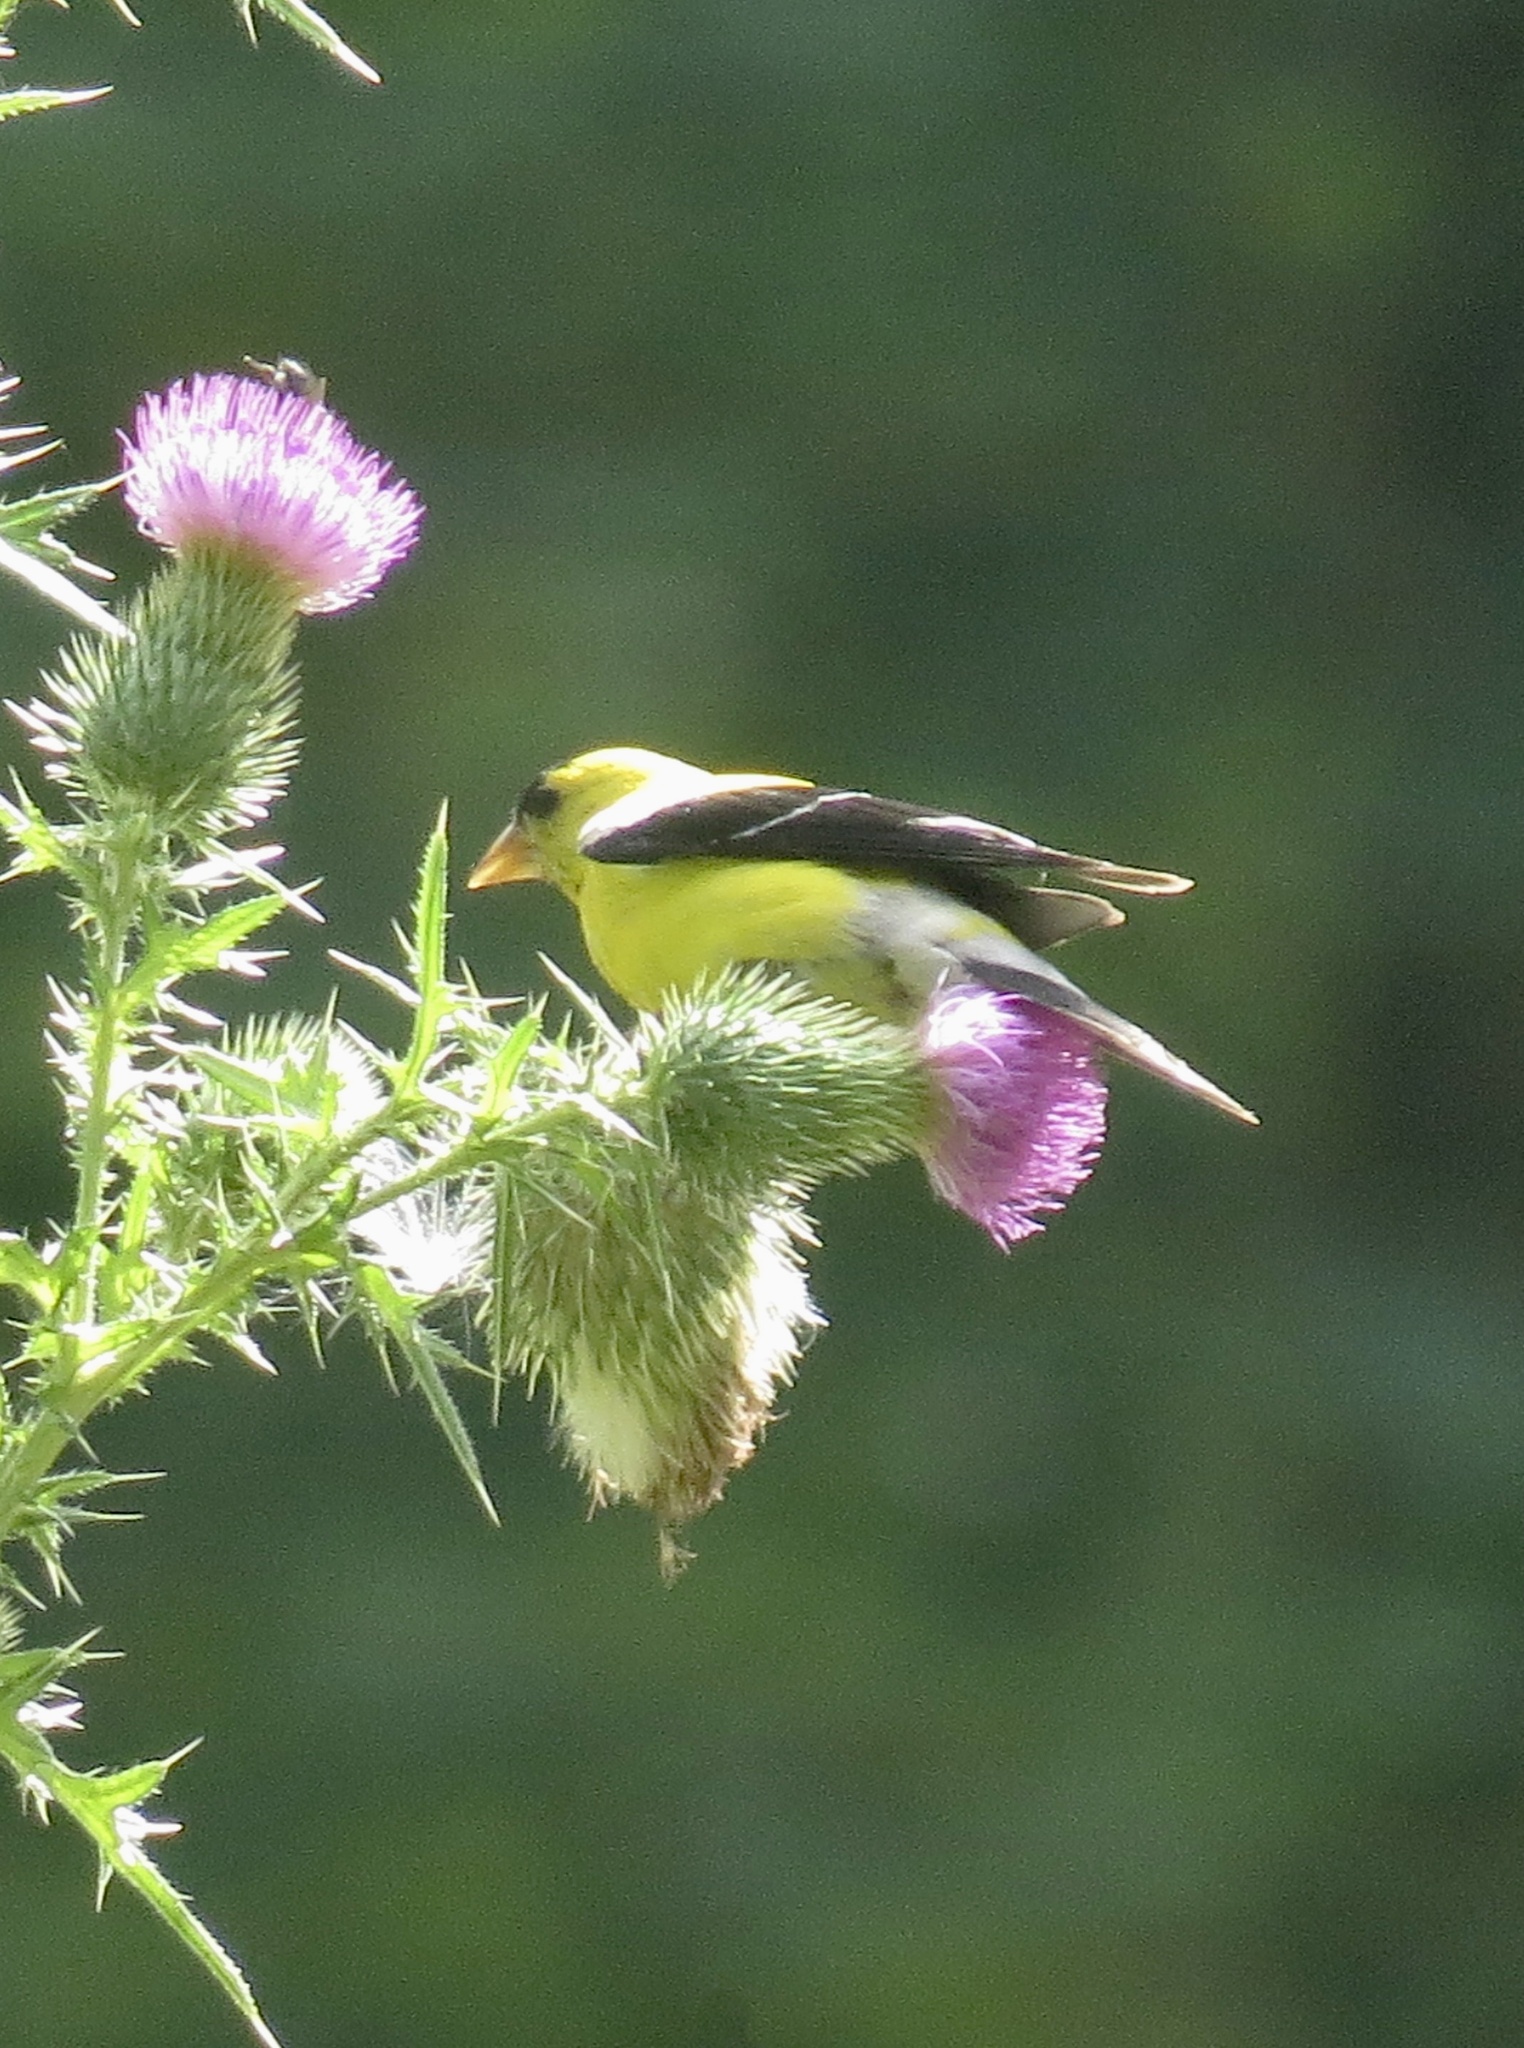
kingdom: Animalia
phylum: Chordata
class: Aves
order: Passeriformes
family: Fringillidae
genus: Spinus
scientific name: Spinus tristis
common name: American goldfinch
